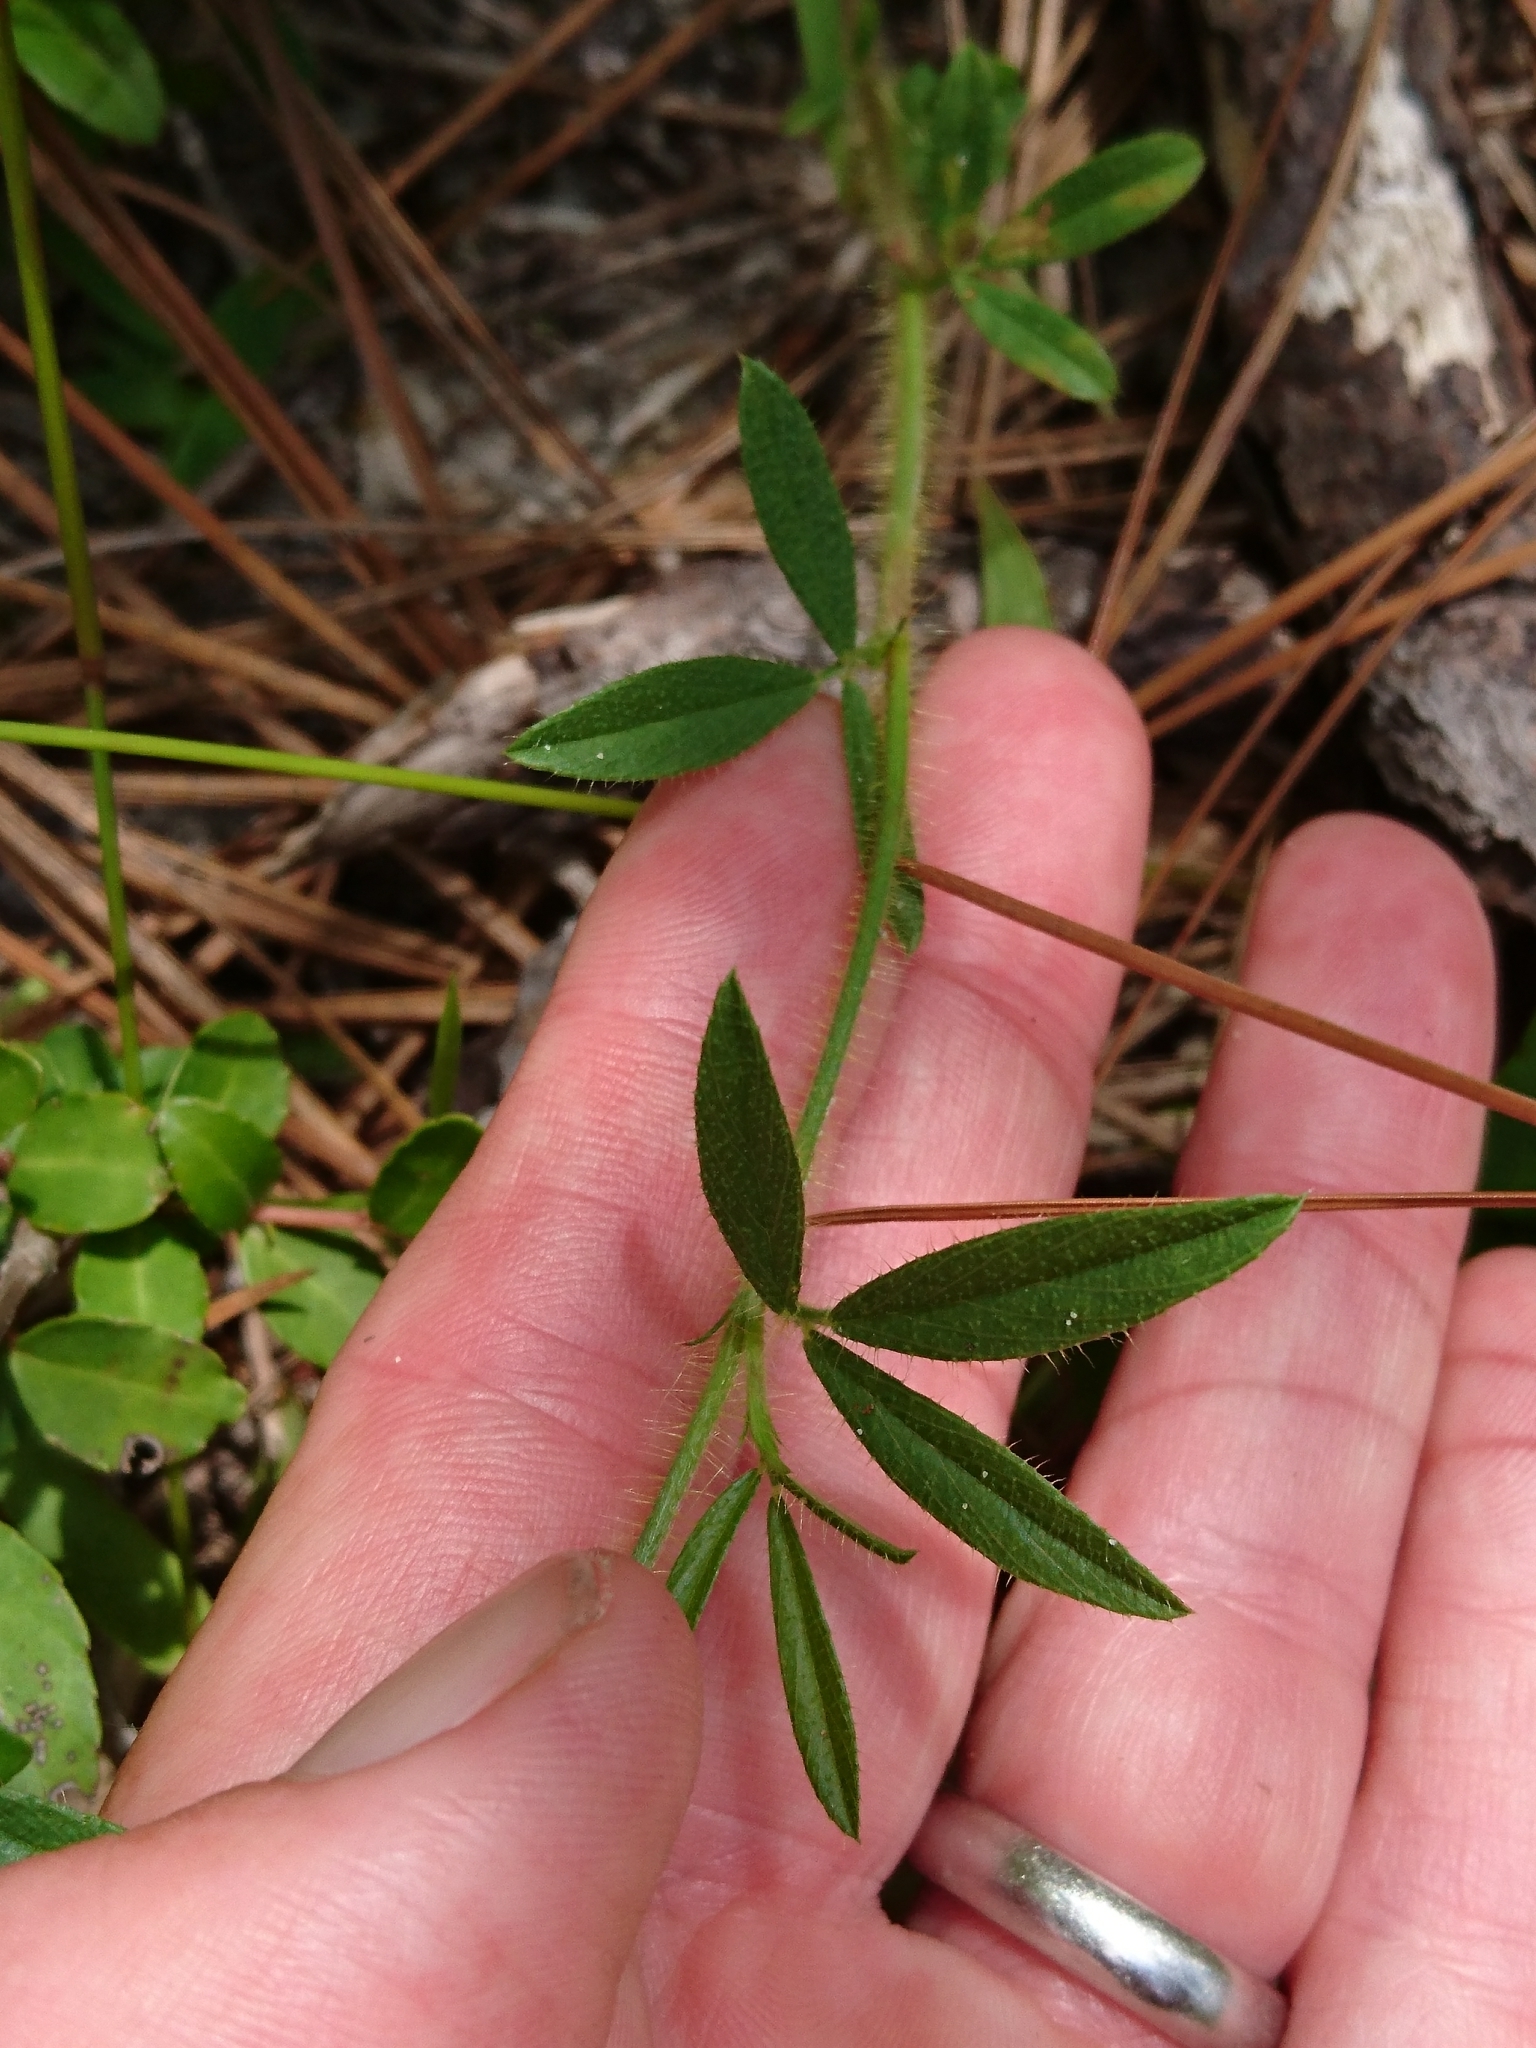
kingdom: Plantae
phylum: Tracheophyta
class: Magnoliopsida
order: Fabales
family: Fabaceae
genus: Stylosanthes
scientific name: Stylosanthes biflora
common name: Two-flower pencil-flower
